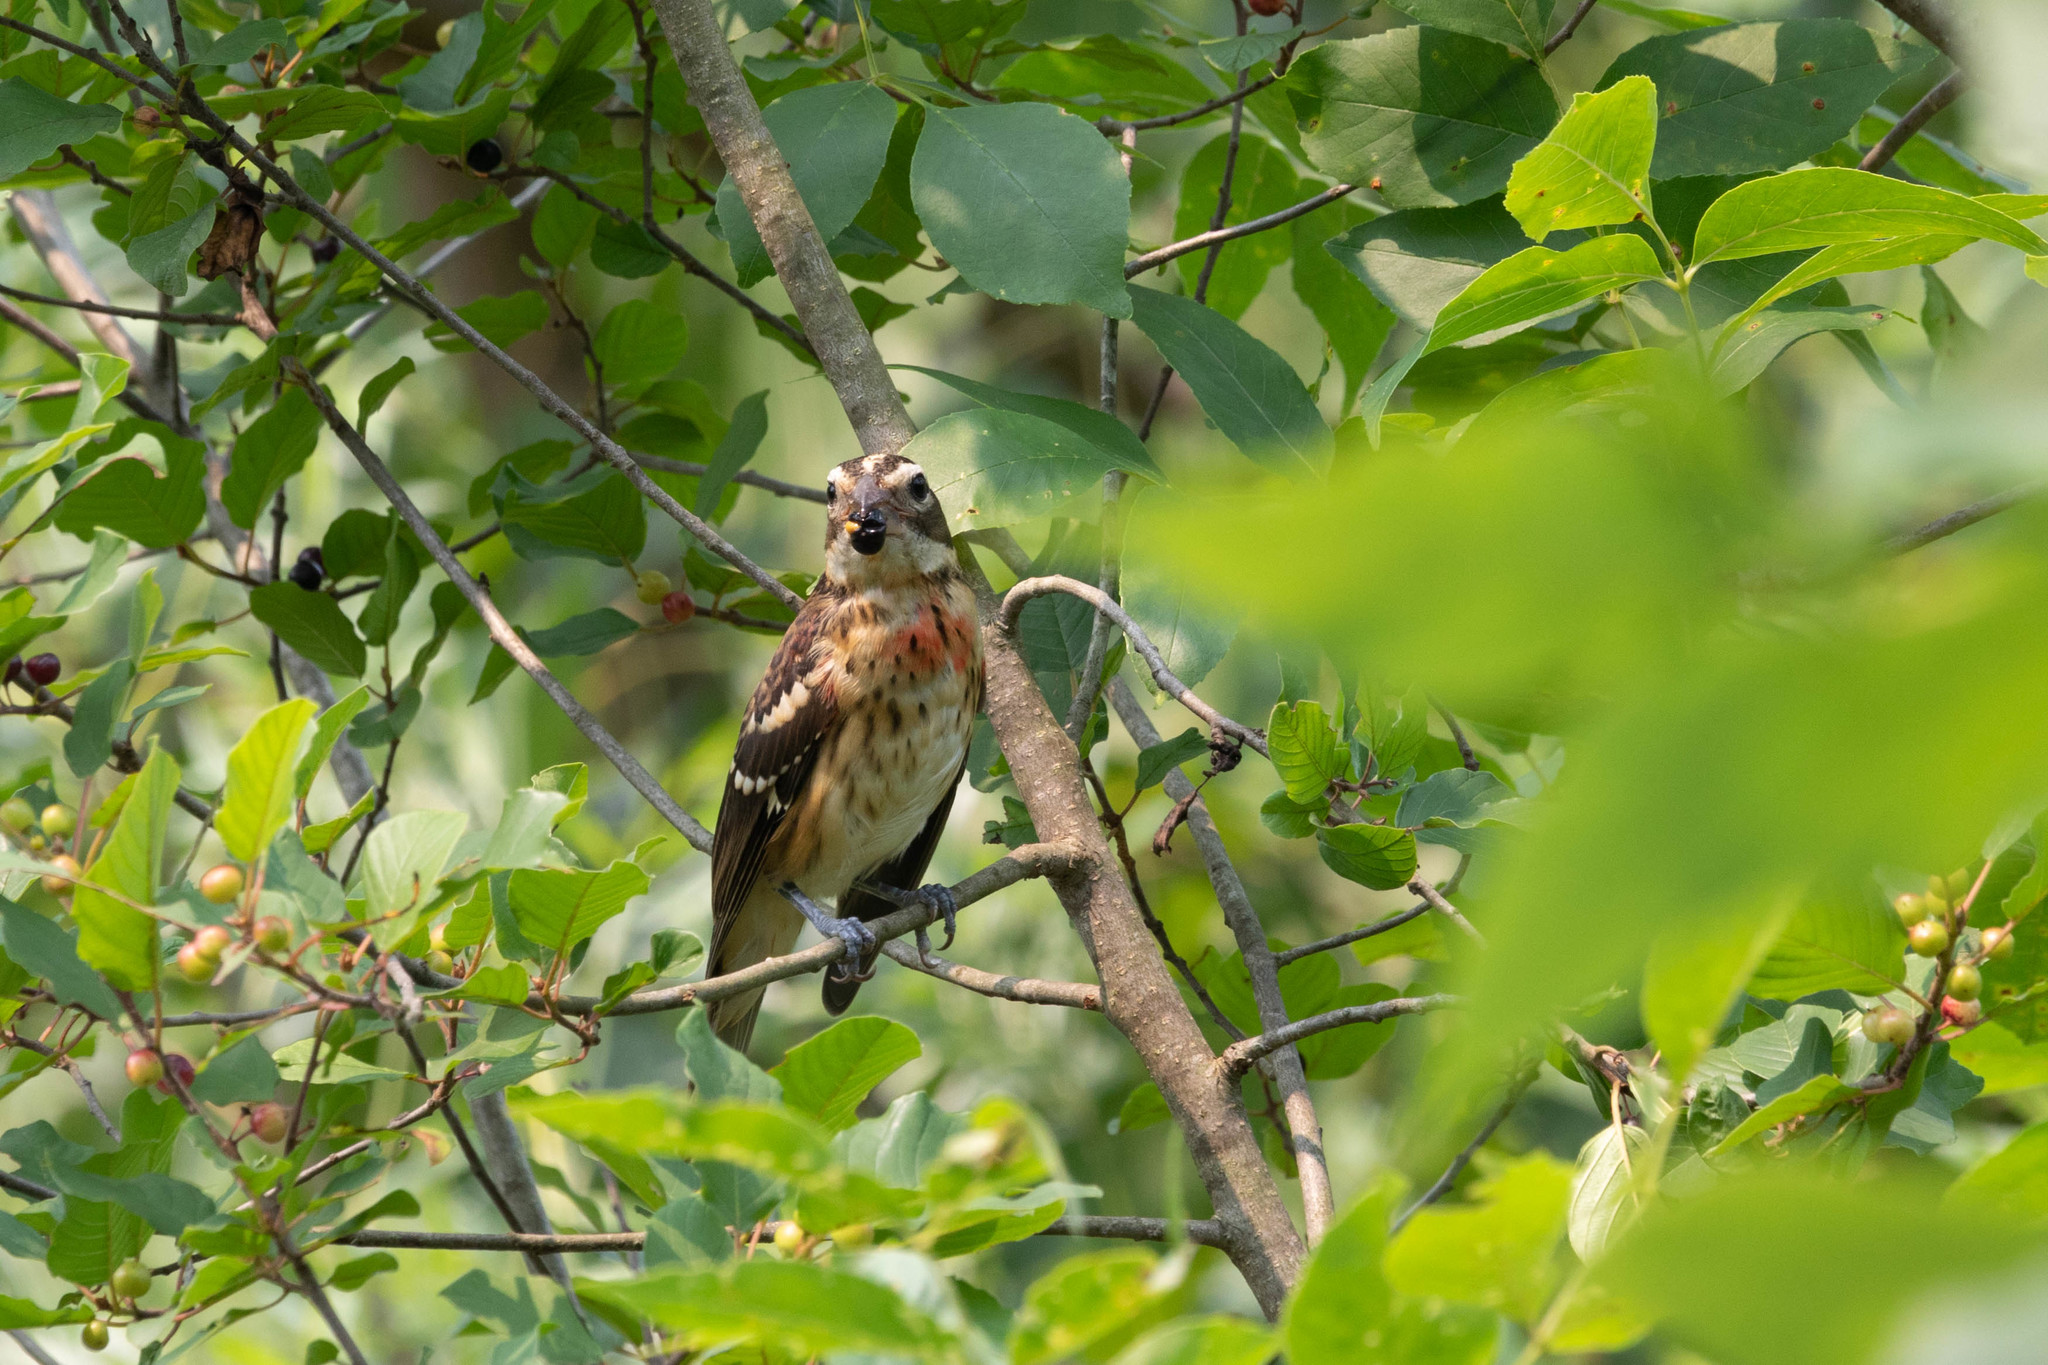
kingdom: Animalia
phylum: Chordata
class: Aves
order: Passeriformes
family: Cardinalidae
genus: Pheucticus
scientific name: Pheucticus ludovicianus
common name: Rose-breasted grosbeak
